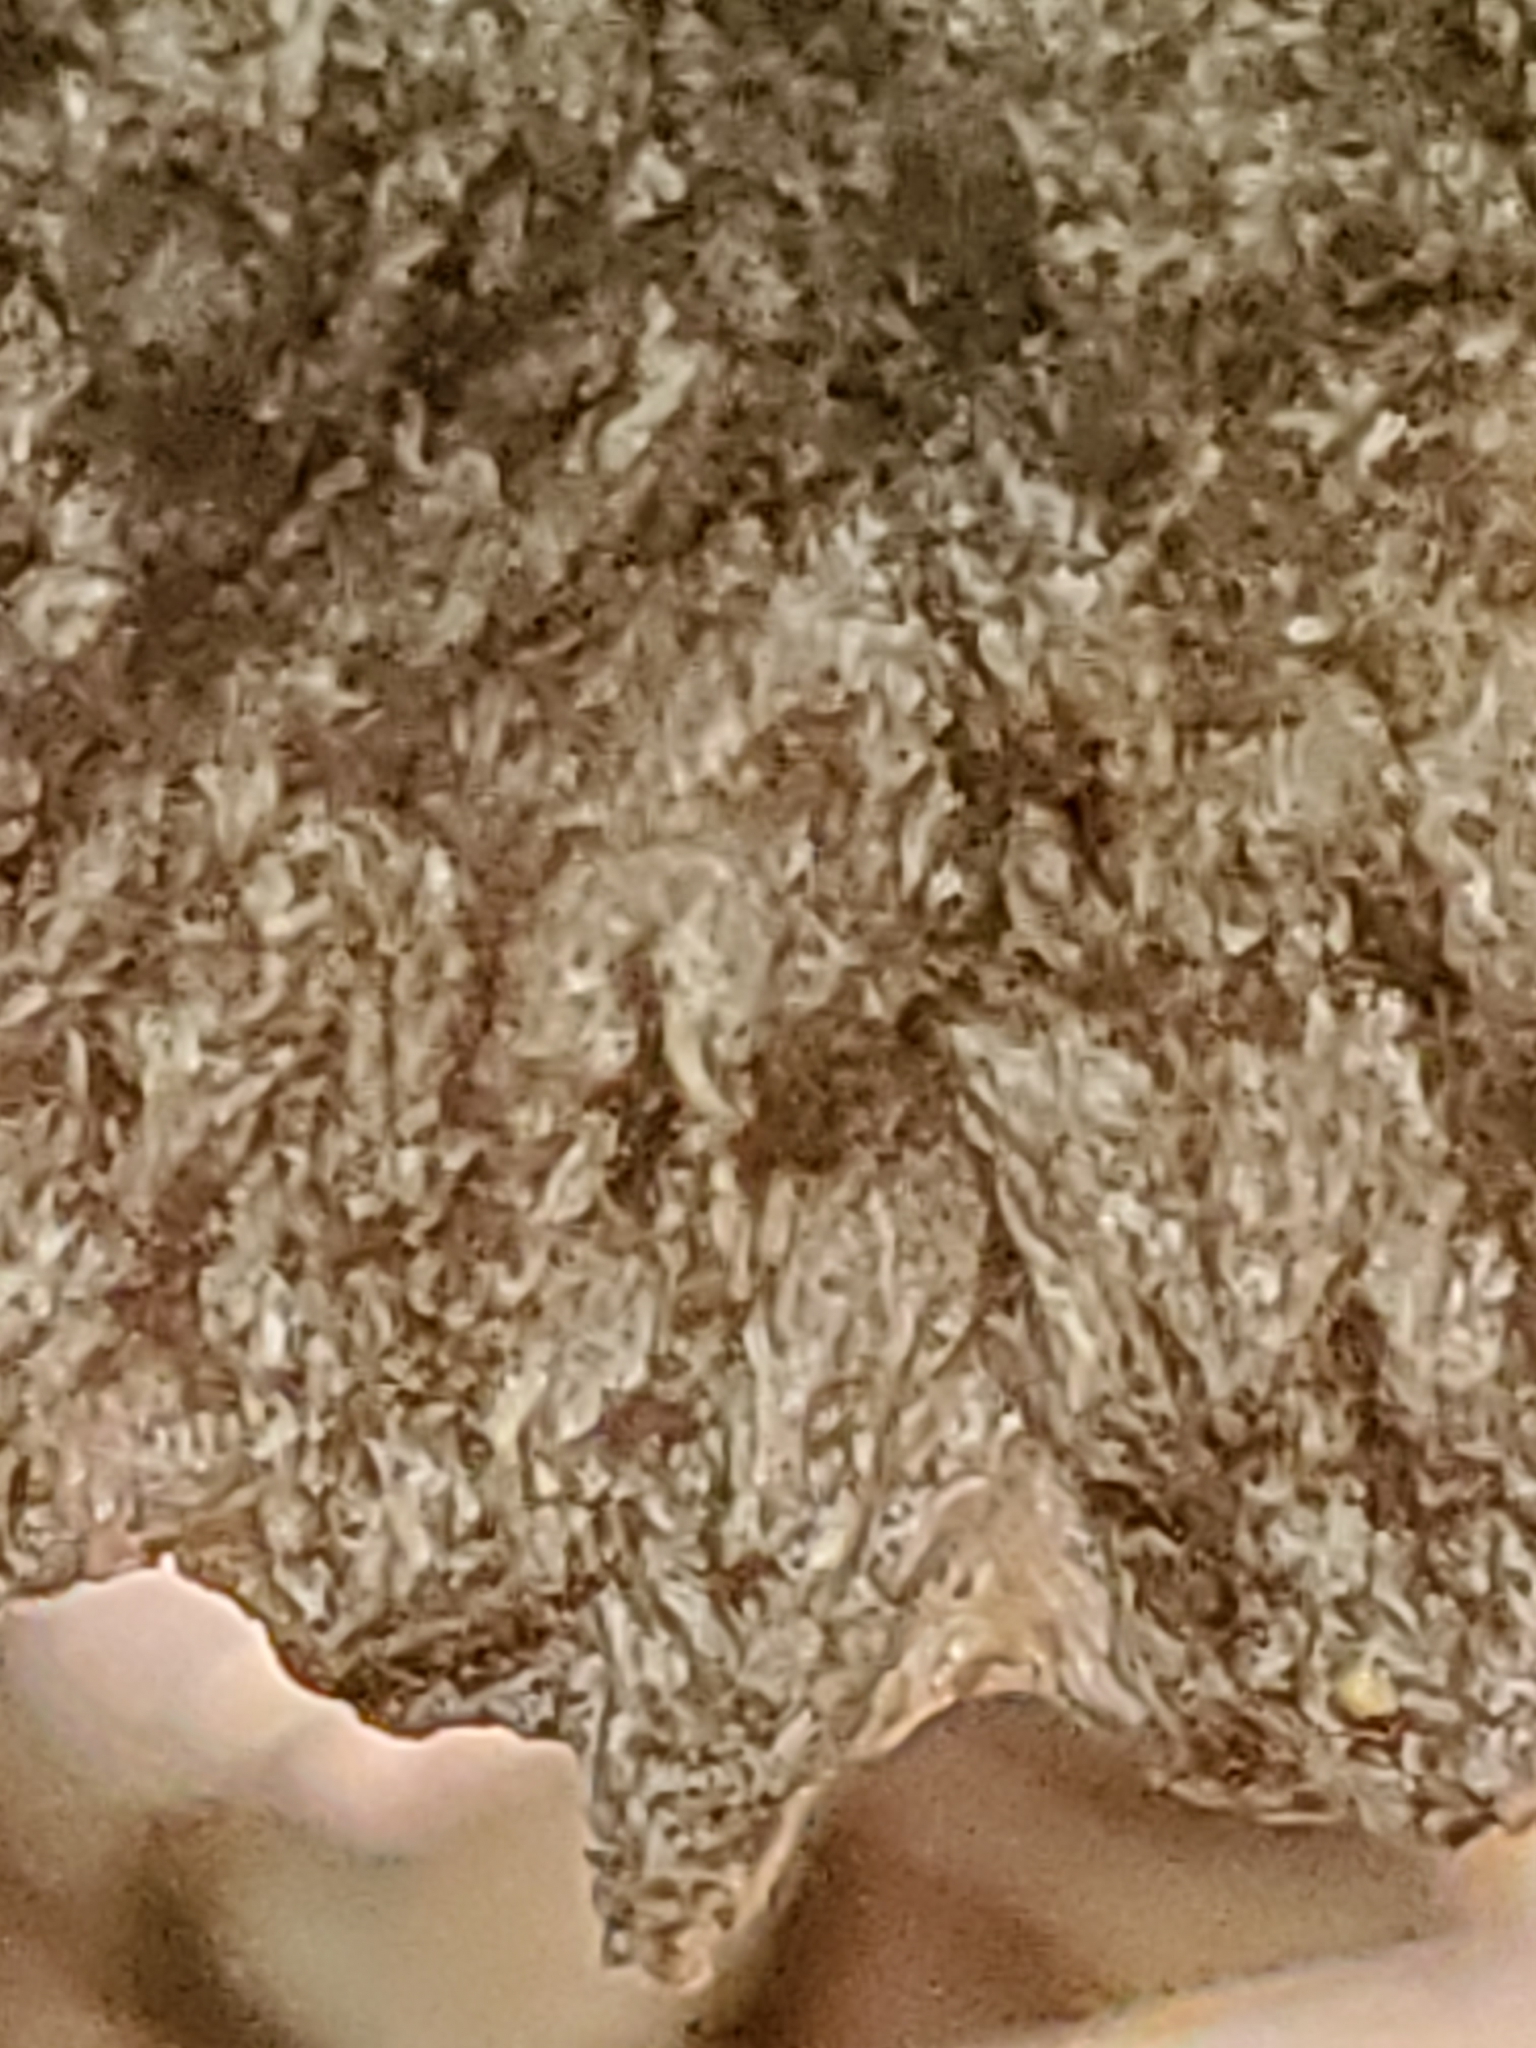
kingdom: Fungi
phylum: Basidiomycota
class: Agaricomycetes
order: Boletales
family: Boletaceae
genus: Strobilomyces
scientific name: Strobilomyces strobilaceus
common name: Old man of the woods
